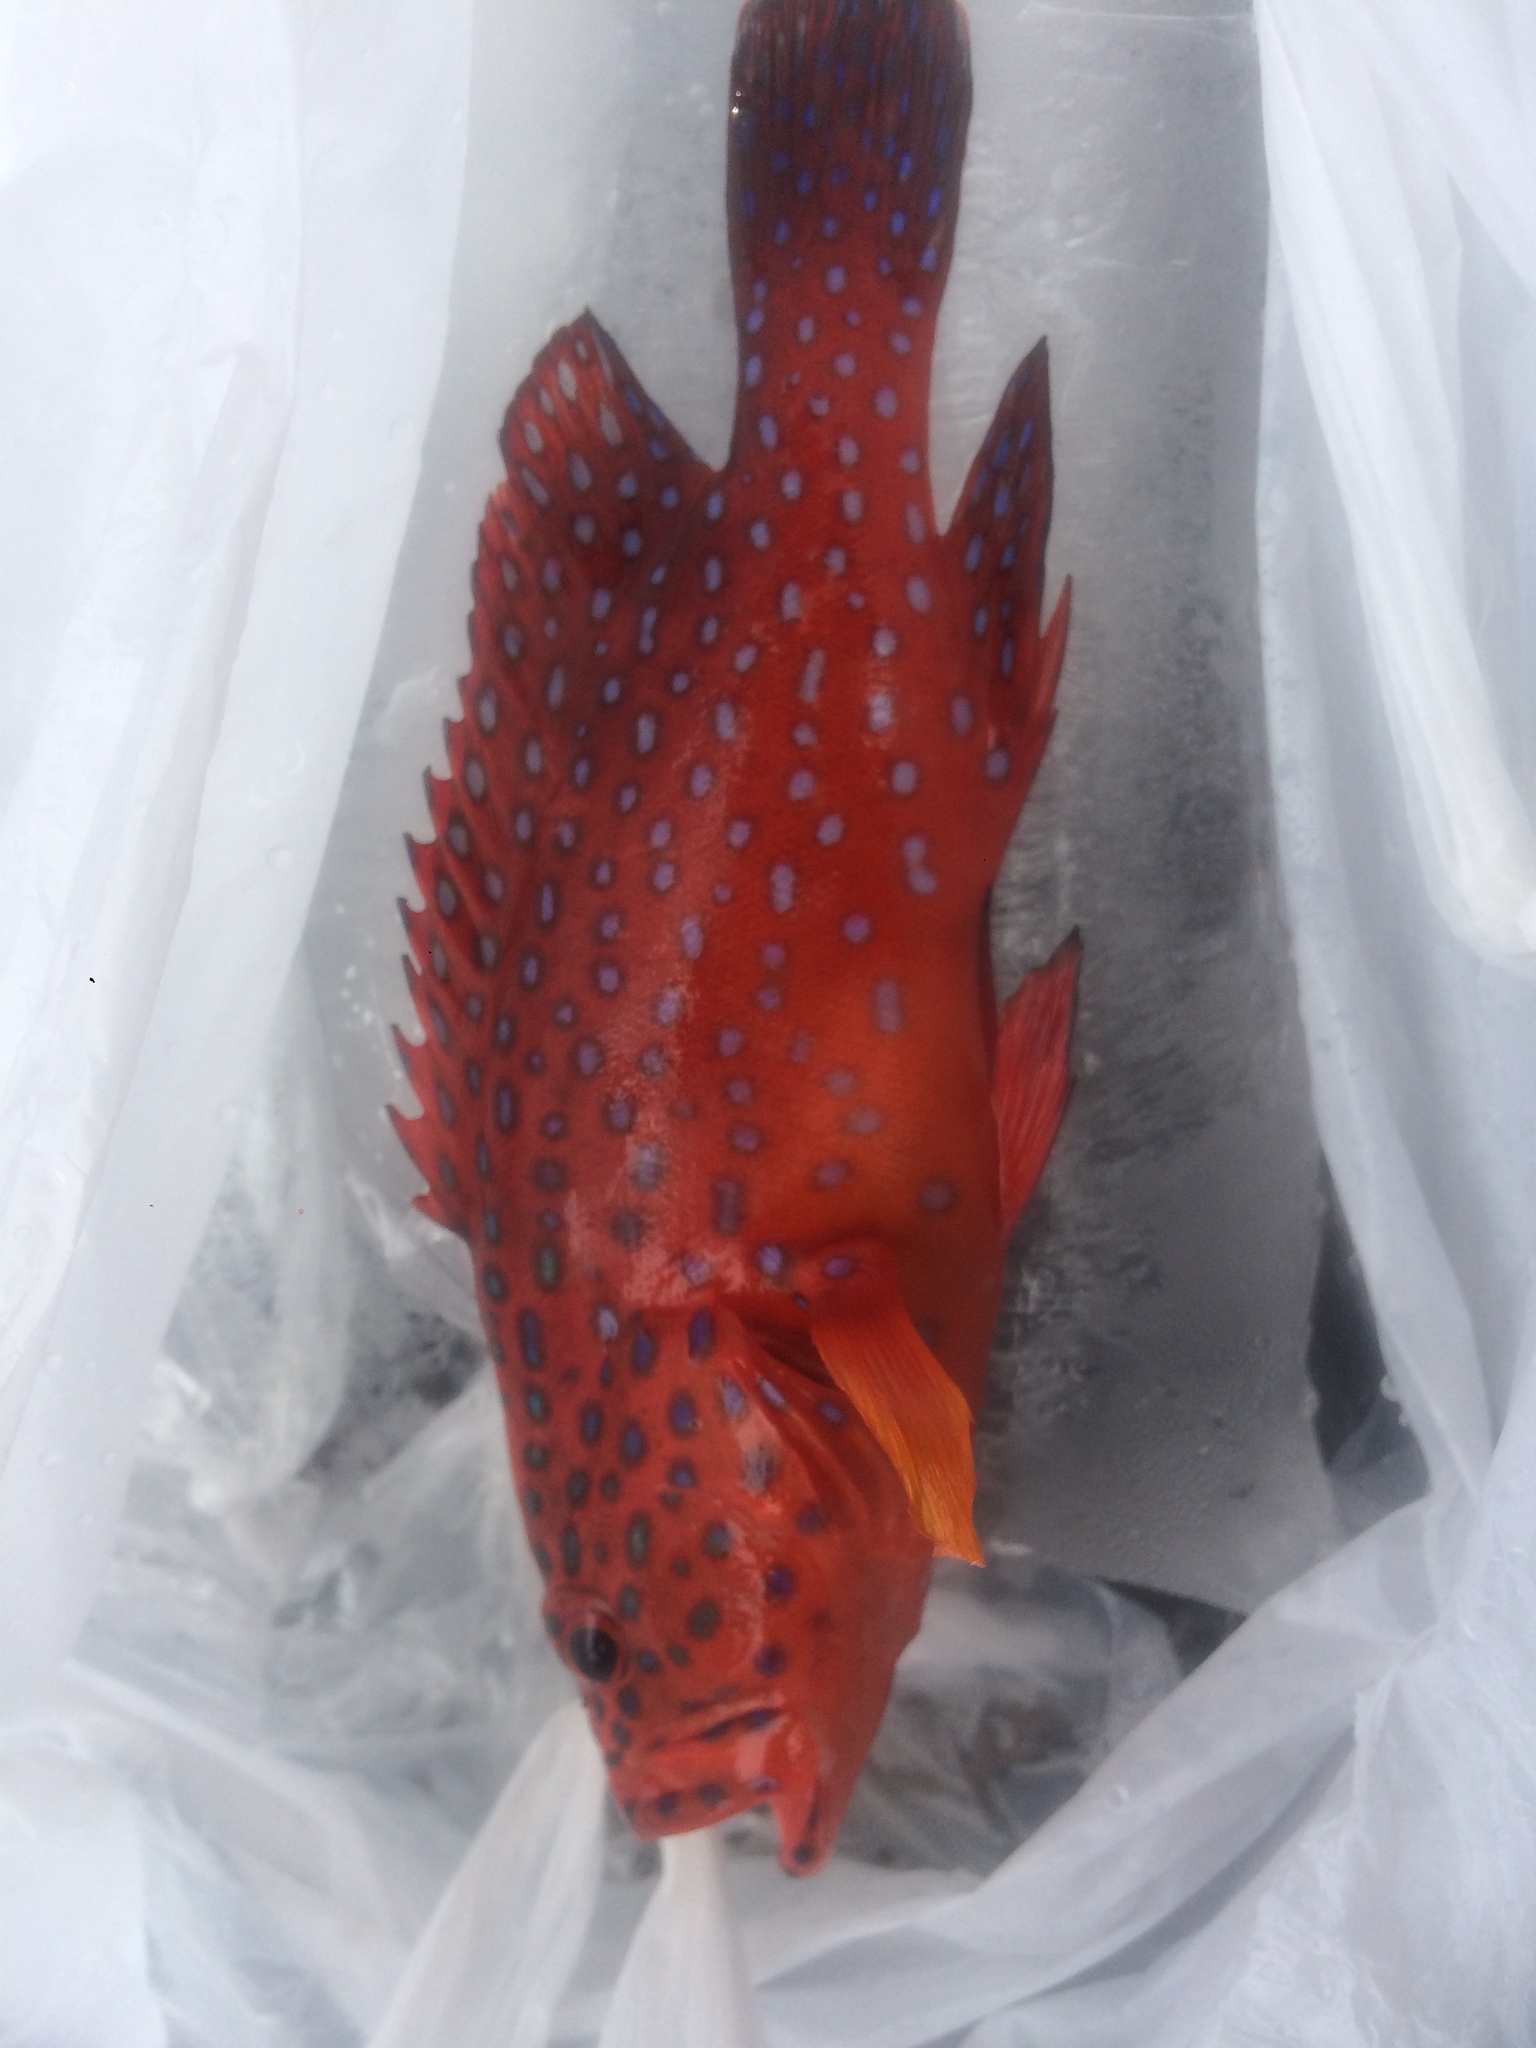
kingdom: Animalia
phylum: Chordata
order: Perciformes
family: Serranidae
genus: Cephalopholis
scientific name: Cephalopholis miniata
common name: Coral hind
